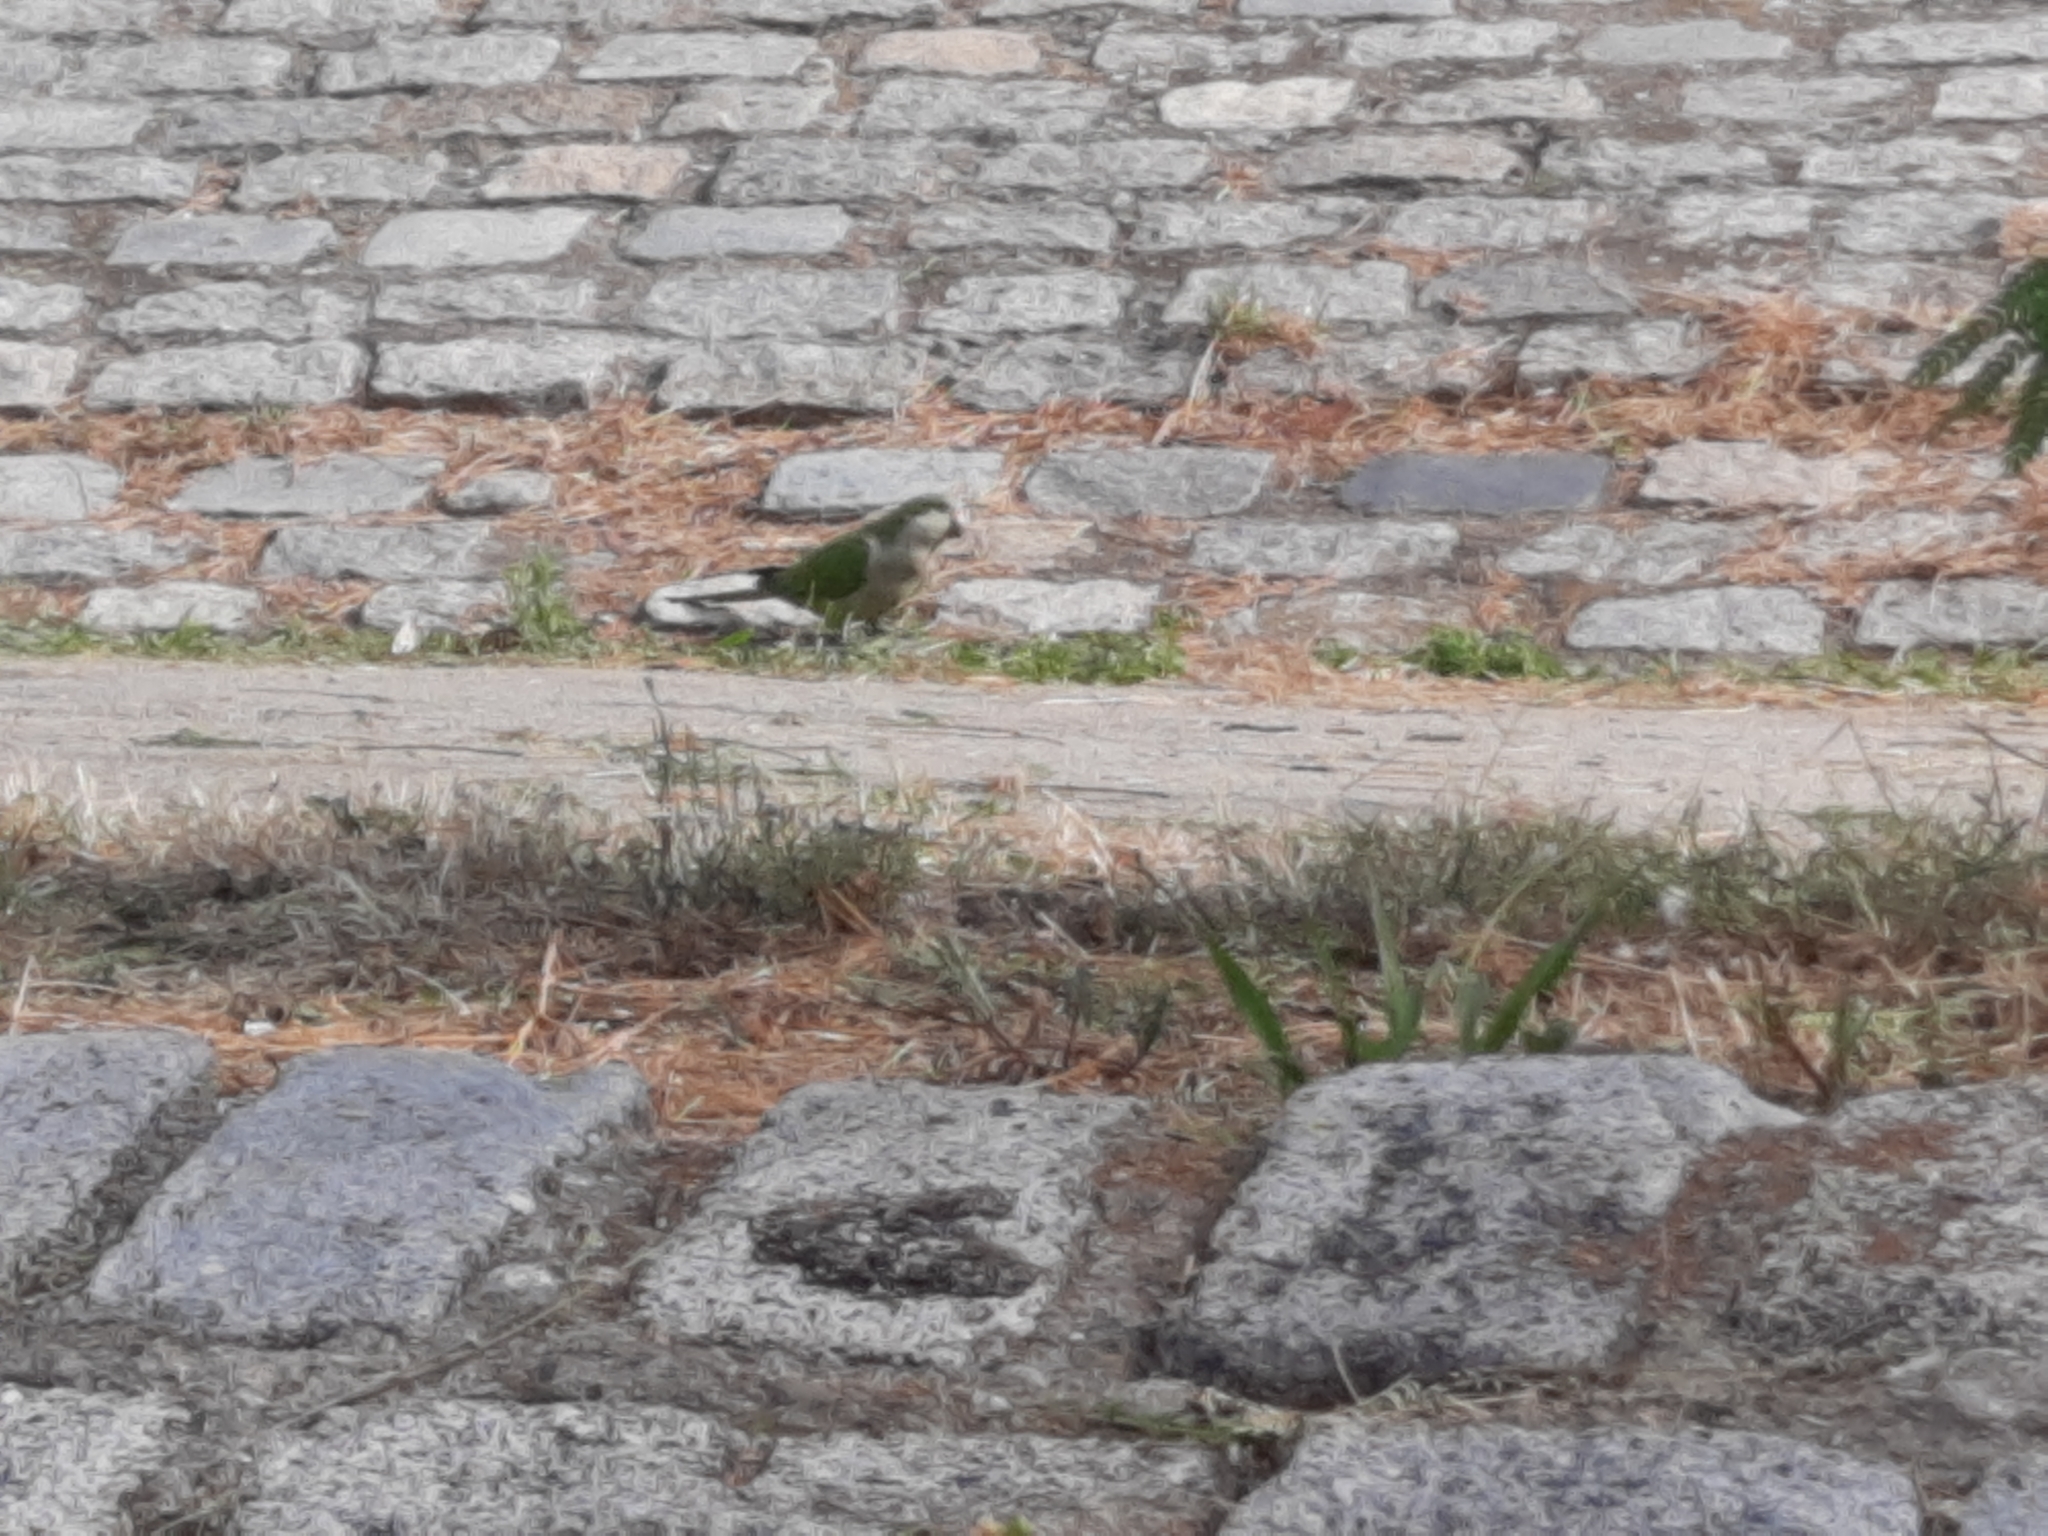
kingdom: Animalia
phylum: Chordata
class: Aves
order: Psittaciformes
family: Psittacidae
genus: Myiopsitta
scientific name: Myiopsitta monachus
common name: Monk parakeet
